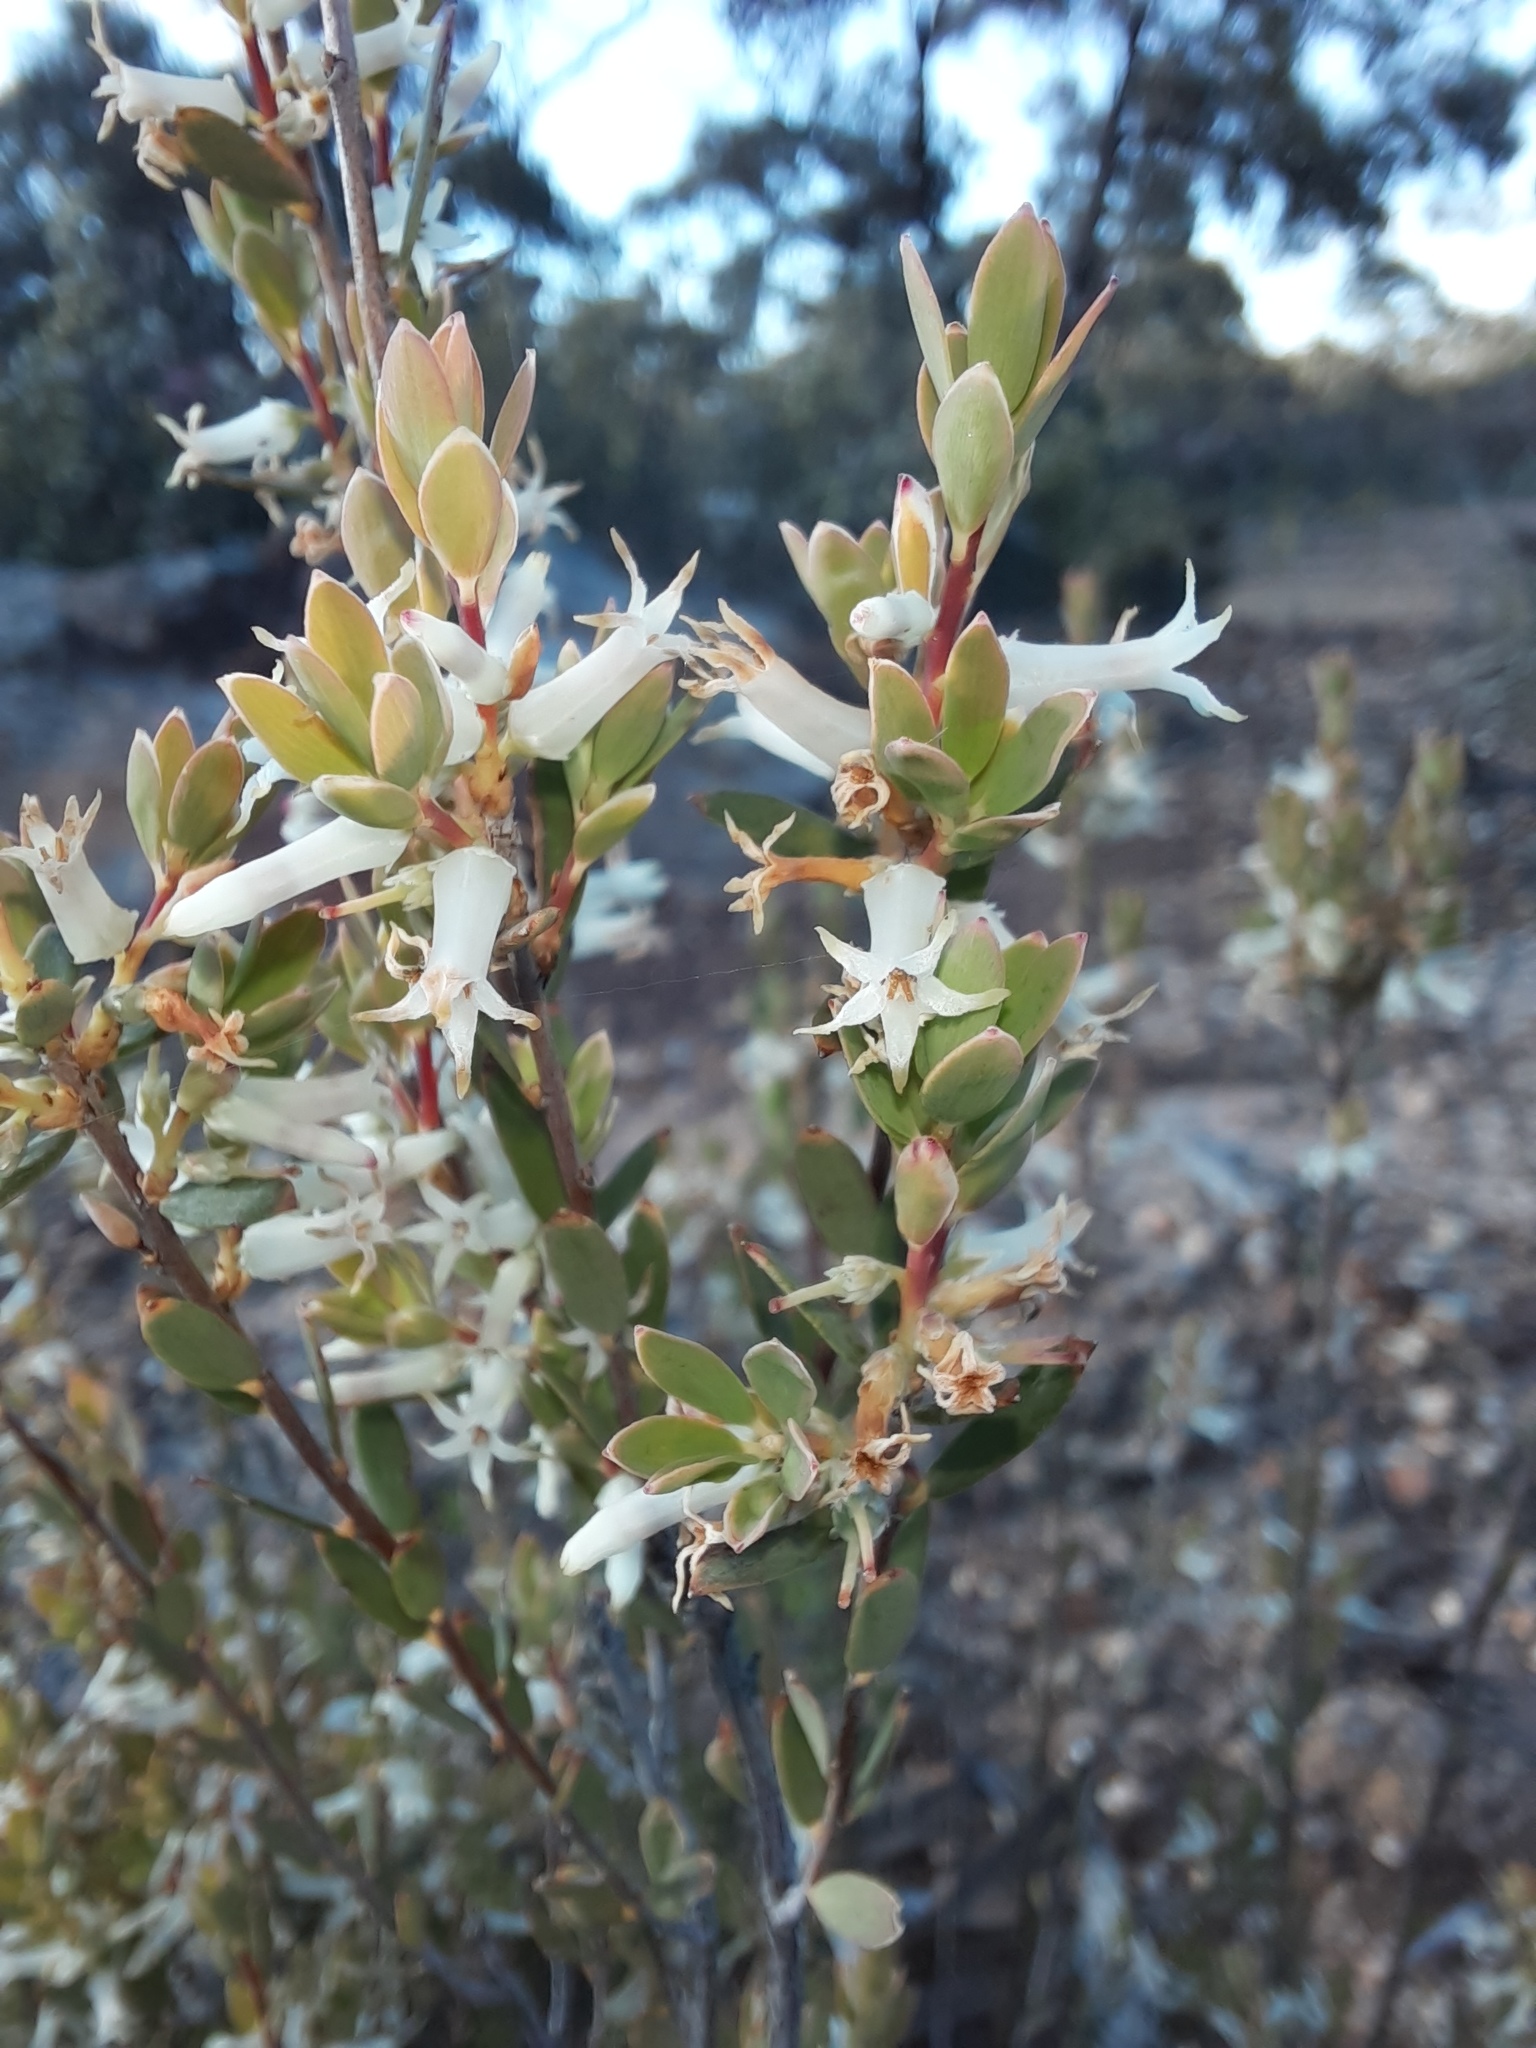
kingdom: Plantae
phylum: Tracheophyta
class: Magnoliopsida
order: Ericales
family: Ericaceae
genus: Brachyloma
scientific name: Brachyloma daphnoides
